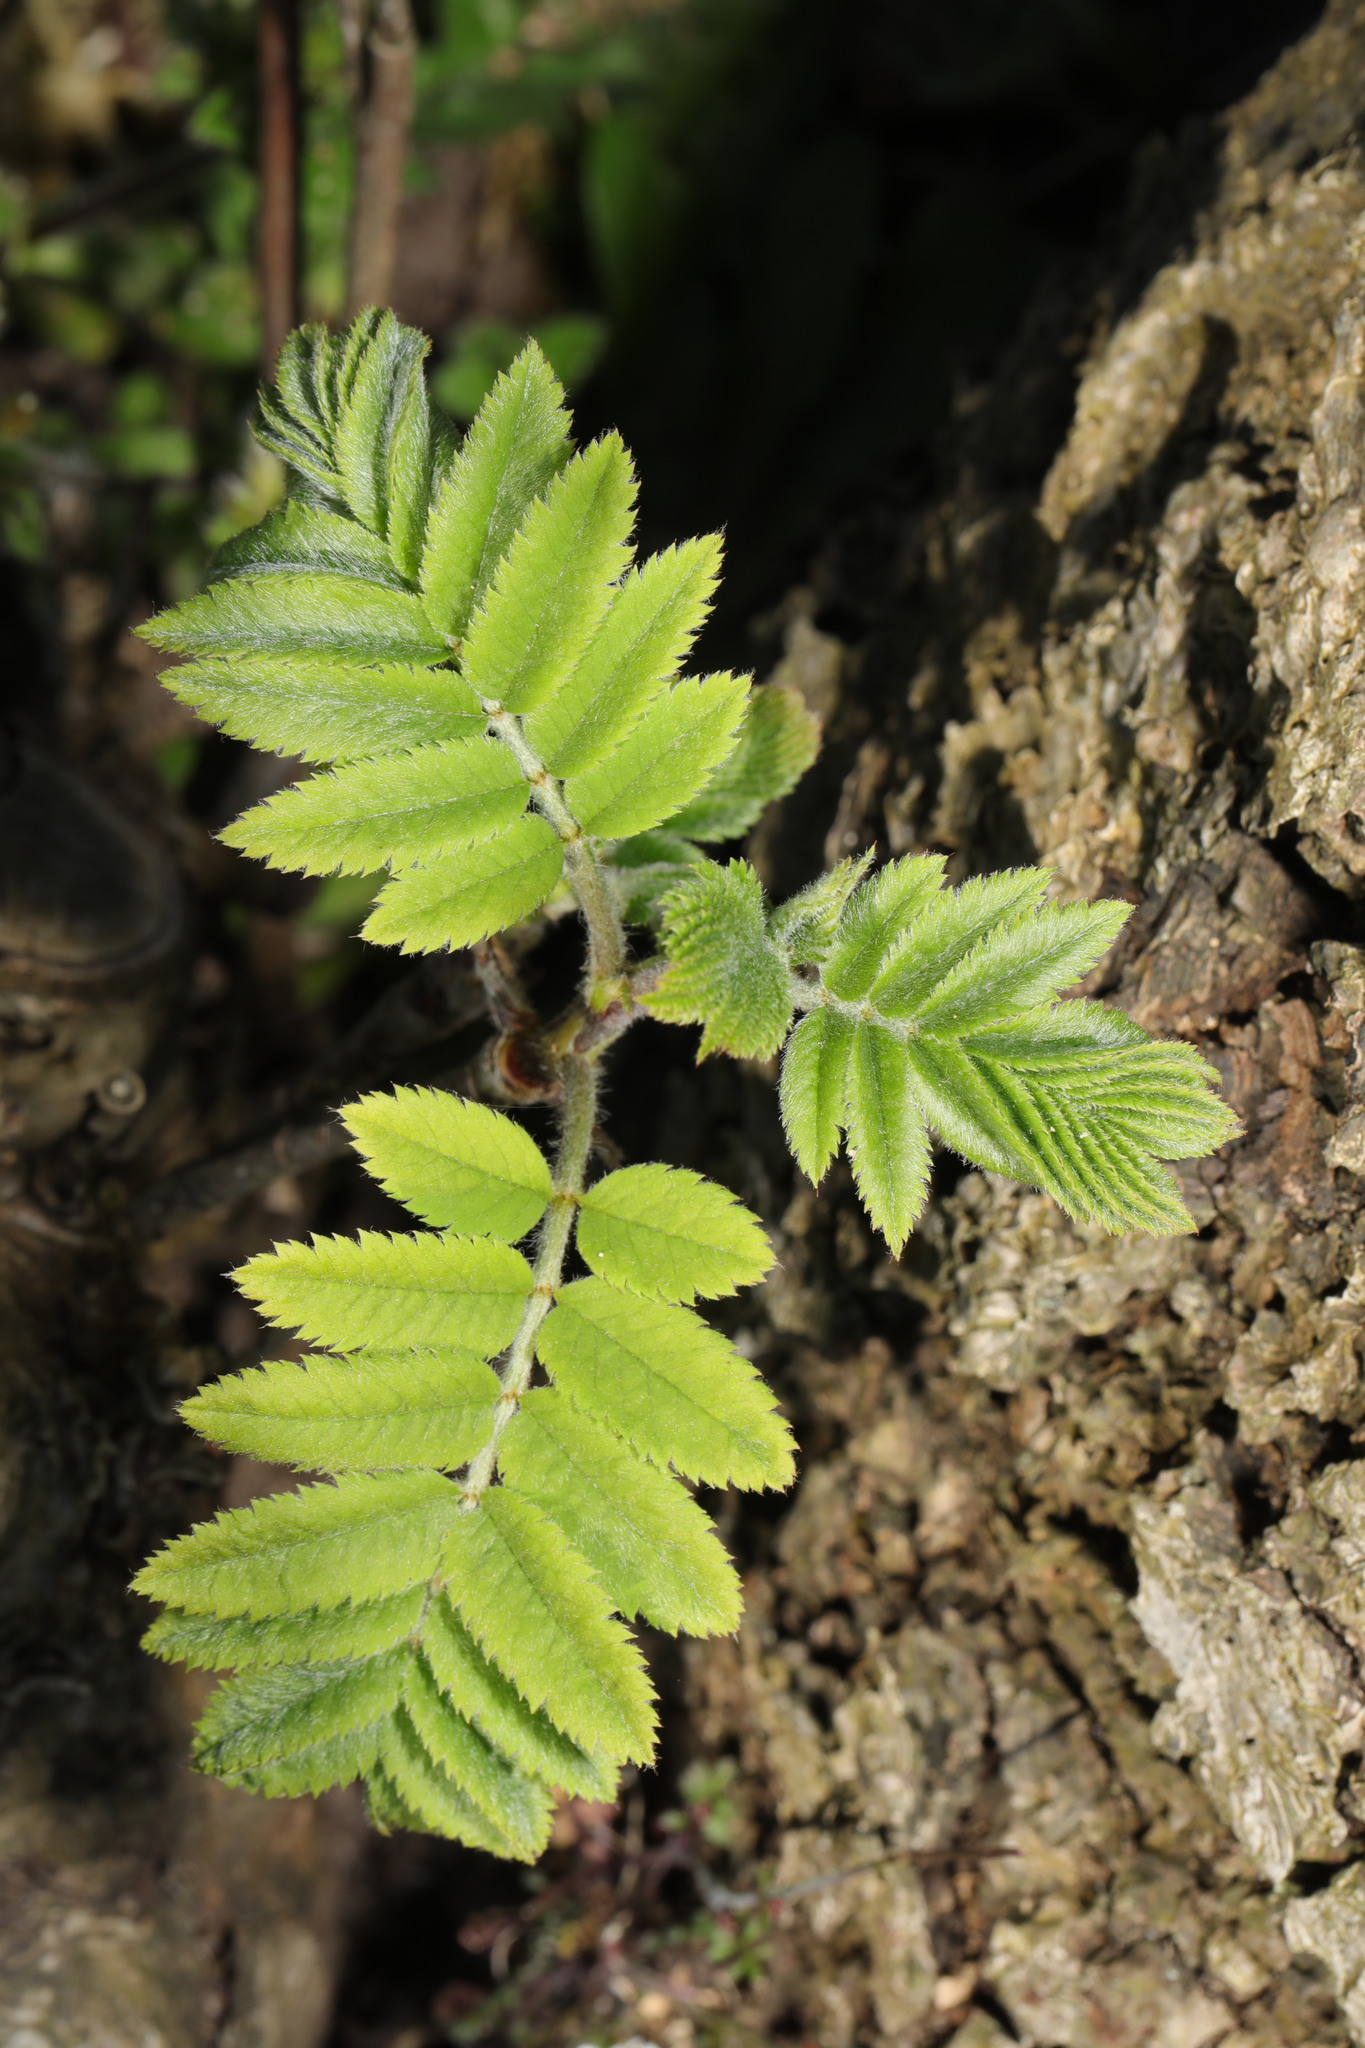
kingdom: Plantae
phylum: Tracheophyta
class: Magnoliopsida
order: Rosales
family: Rosaceae
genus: Sorbus
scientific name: Sorbus aucuparia
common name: Rowan
